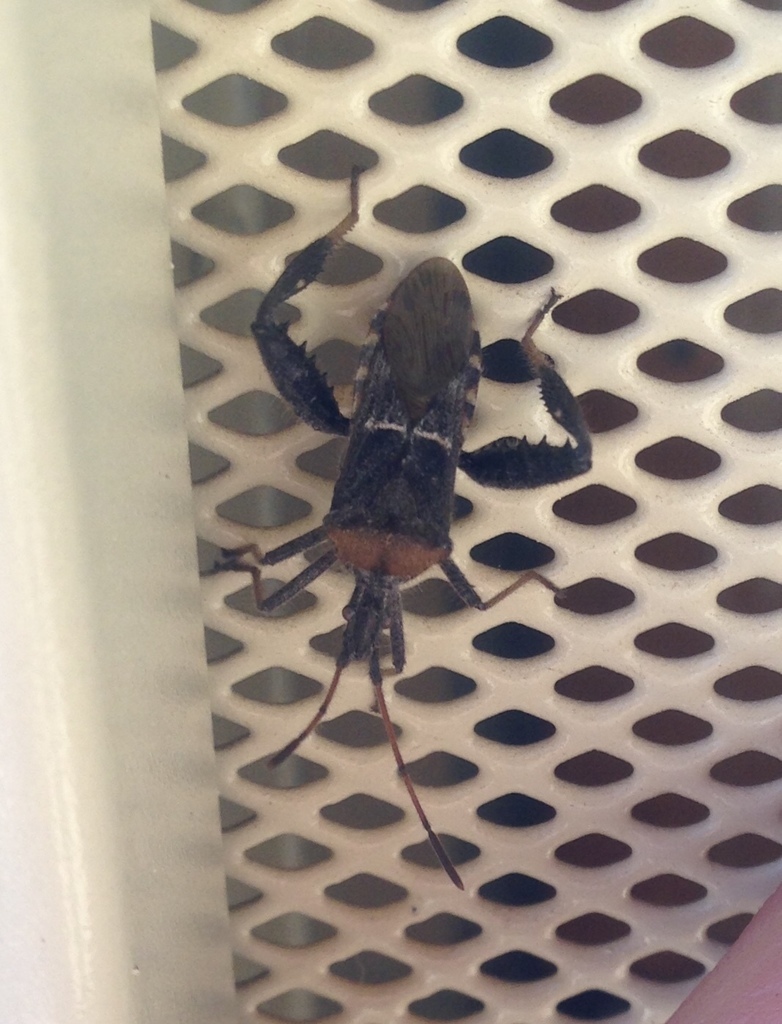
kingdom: Animalia
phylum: Arthropoda
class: Insecta
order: Hemiptera
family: Coreidae
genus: Narnia
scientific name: Narnia snowi
